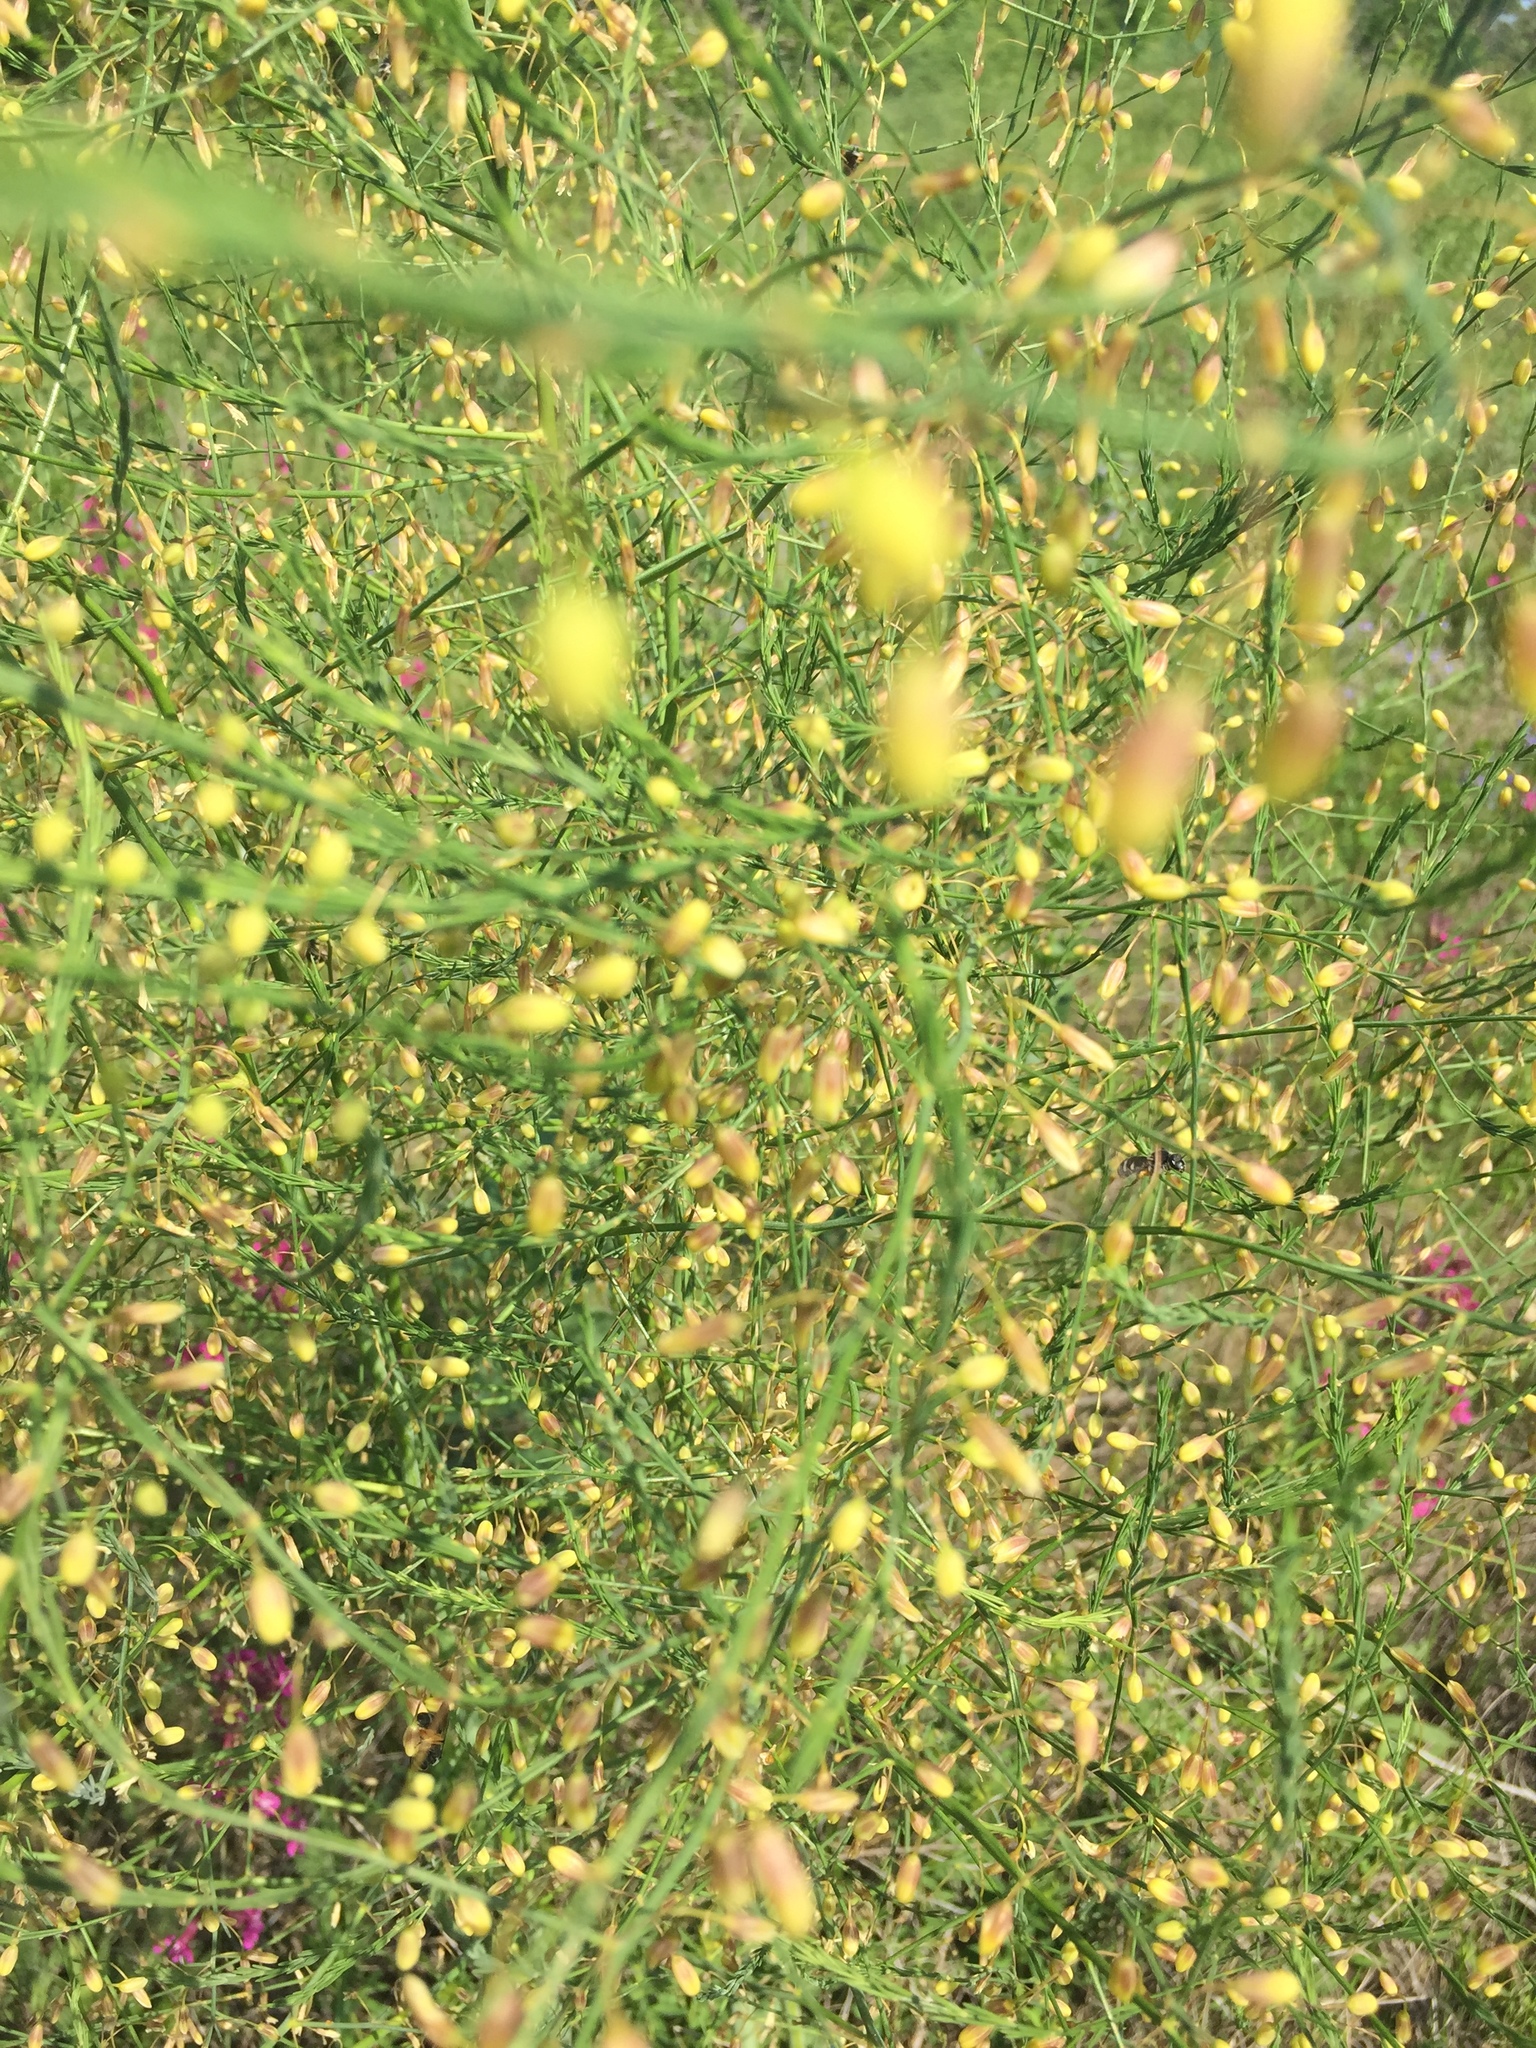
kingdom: Plantae
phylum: Tracheophyta
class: Liliopsida
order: Asparagales
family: Asparagaceae
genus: Asparagus
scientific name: Asparagus officinalis
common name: Garden asparagus
